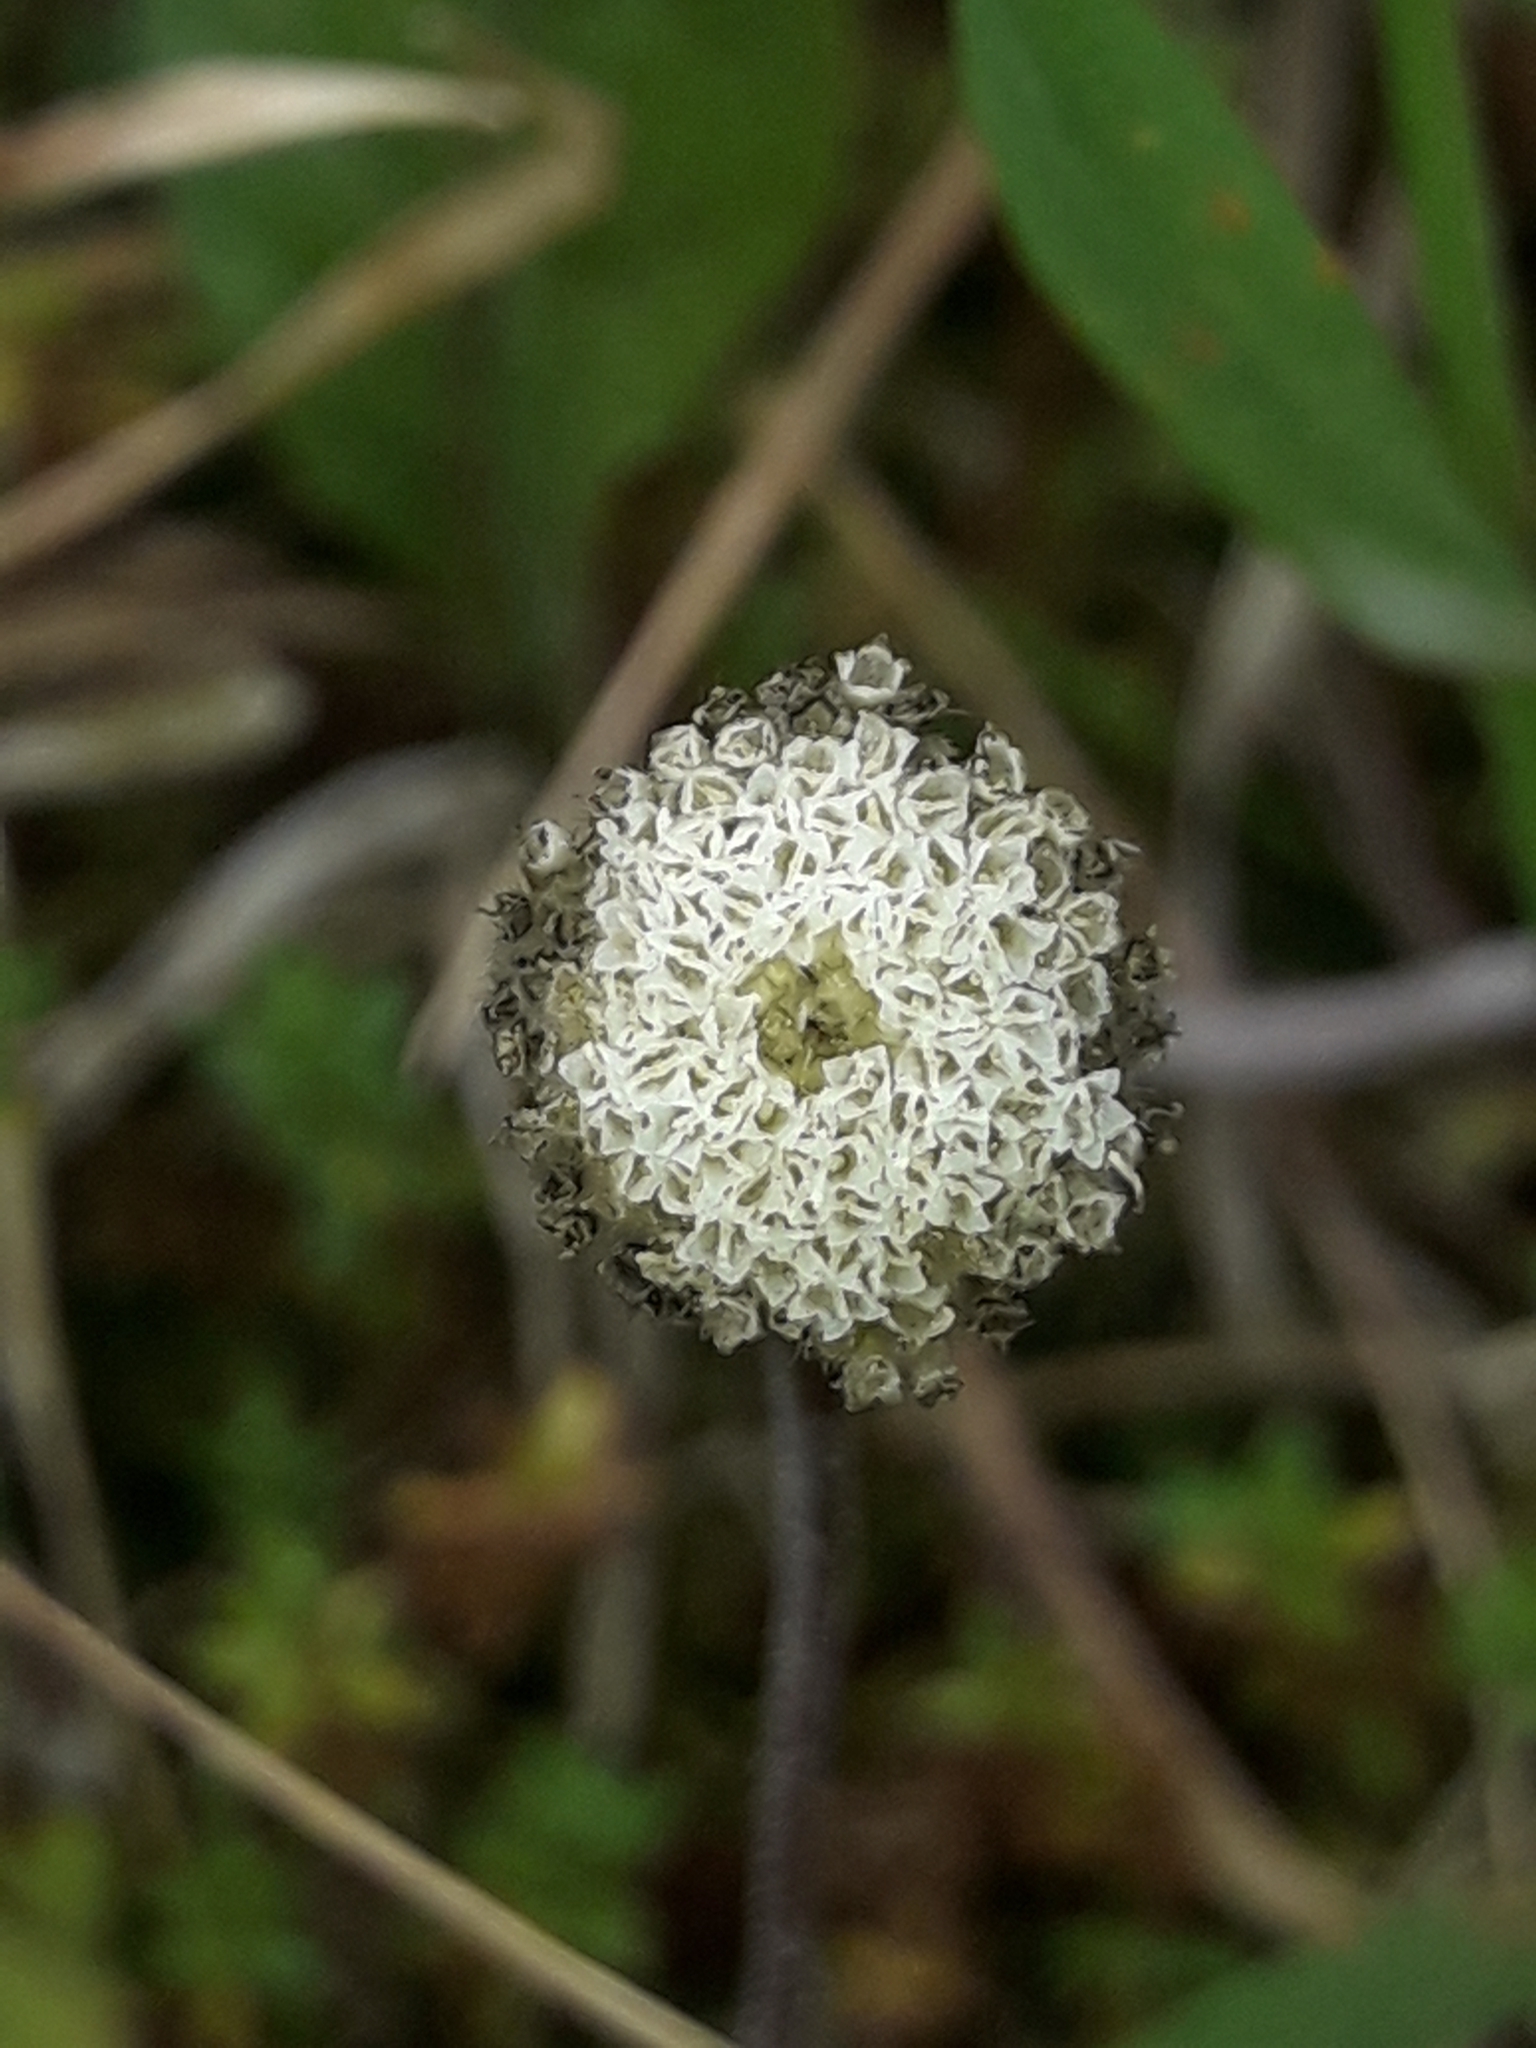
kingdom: Plantae
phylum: Tracheophyta
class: Magnoliopsida
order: Asterales
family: Asteraceae
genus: Craspedia
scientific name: Craspedia uniflora
